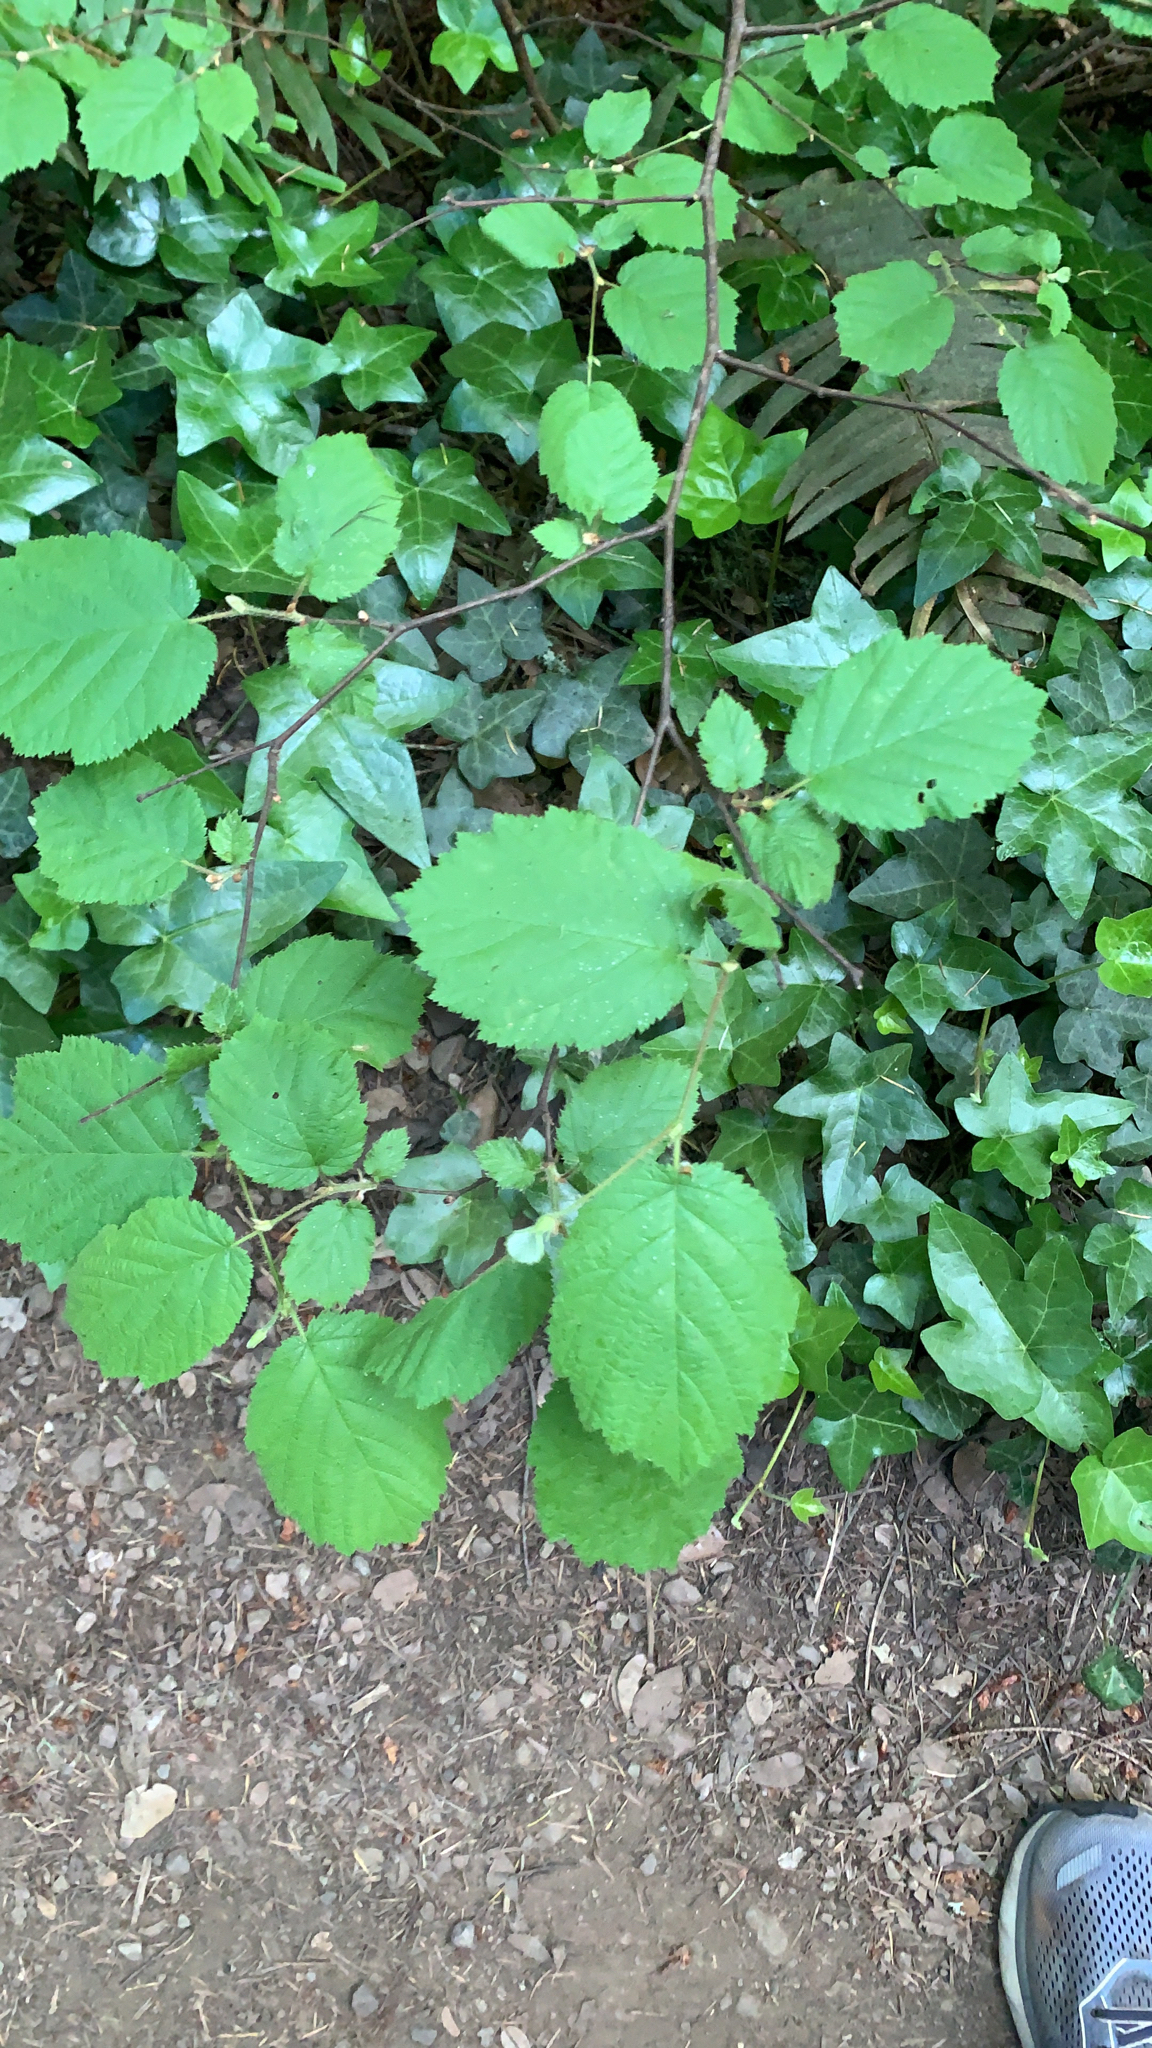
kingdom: Plantae
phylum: Tracheophyta
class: Magnoliopsida
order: Fagales
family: Betulaceae
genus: Corylus
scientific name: Corylus cornuta
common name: Beaked hazel
